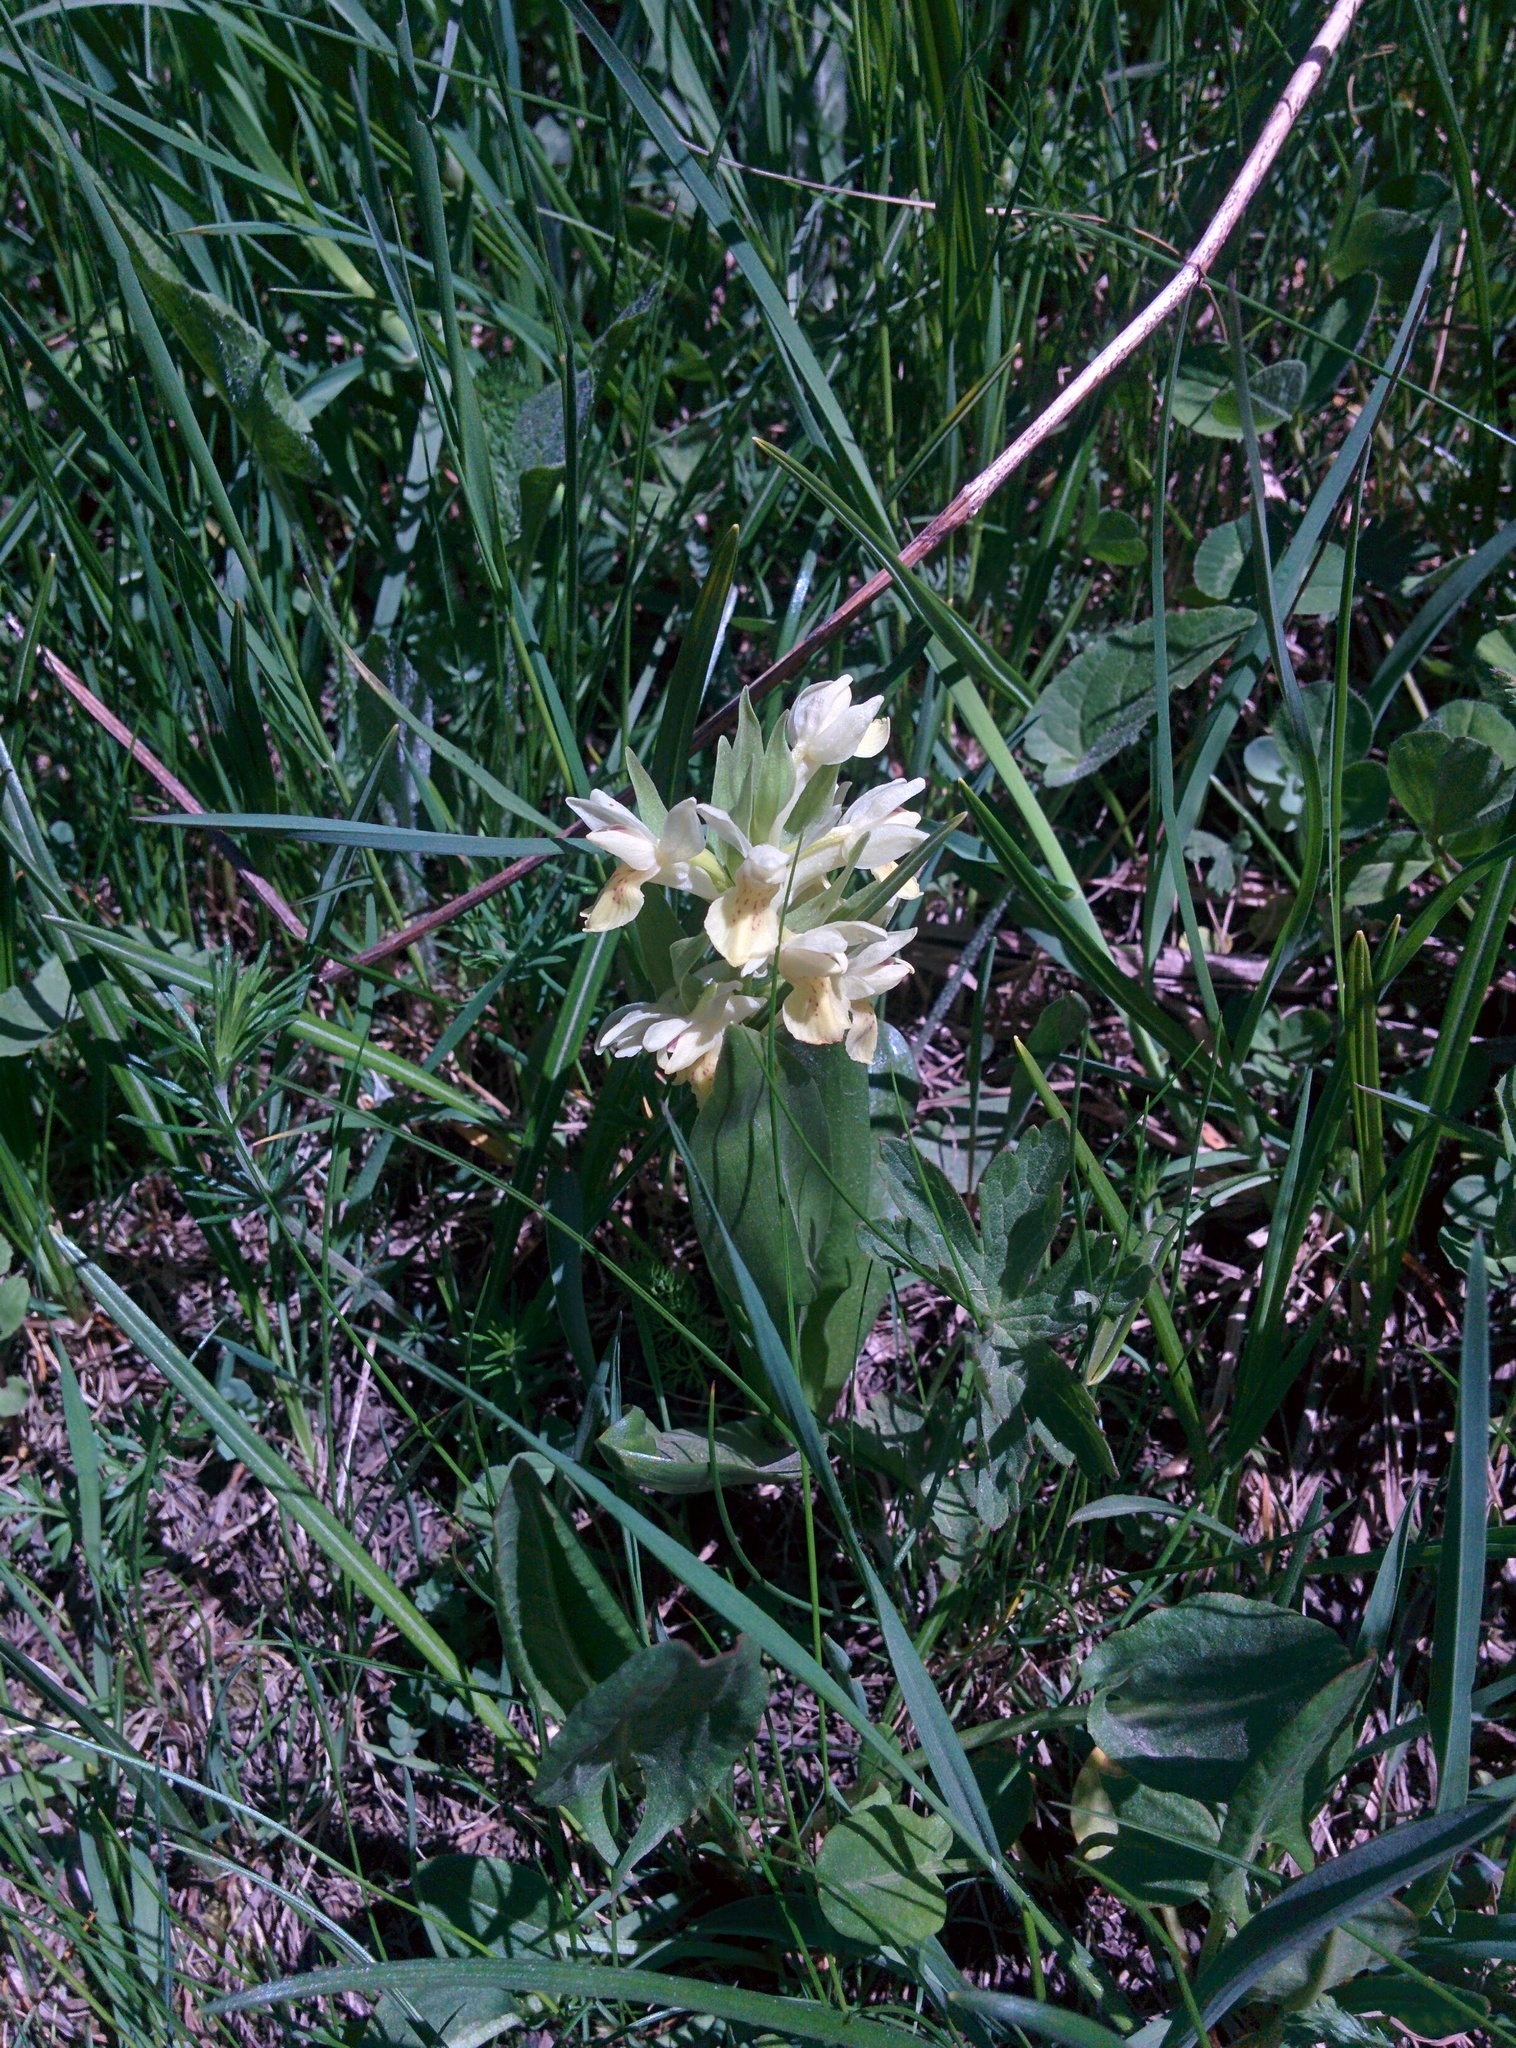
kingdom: Plantae
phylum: Tracheophyta
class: Liliopsida
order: Asparagales
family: Orchidaceae
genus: Dactylorhiza
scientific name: Dactylorhiza sambucina
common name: Elder-flowered orchid
